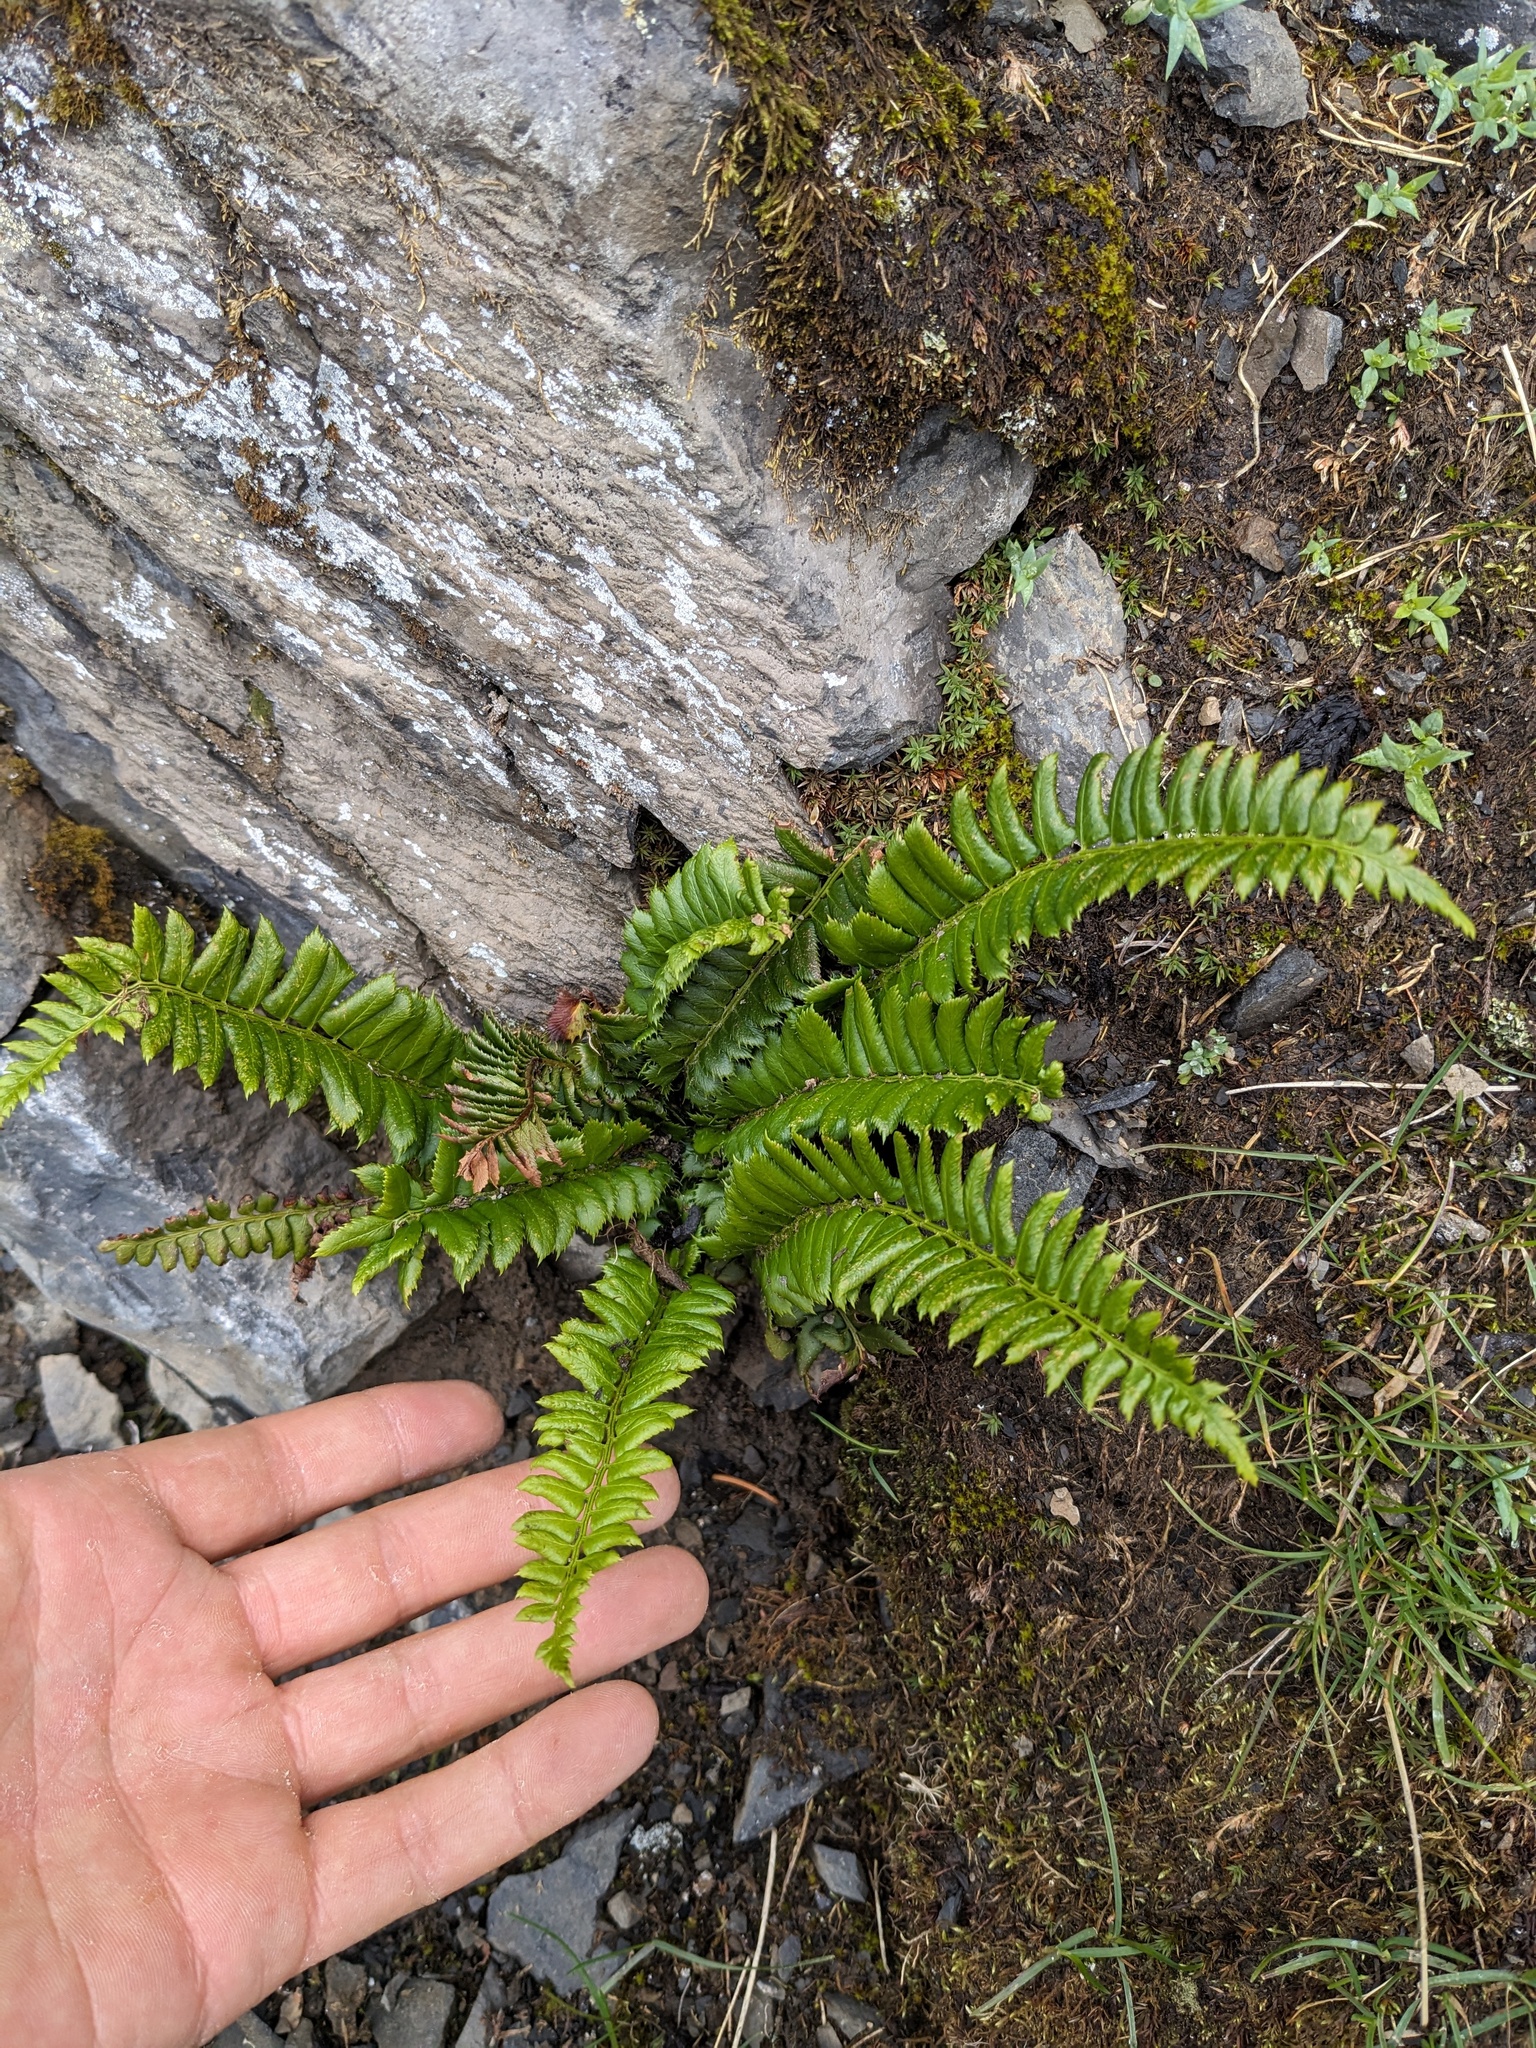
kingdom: Plantae
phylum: Tracheophyta
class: Polypodiopsida
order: Polypodiales
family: Dryopteridaceae
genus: Polystichum
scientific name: Polystichum lonchitis
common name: Holly fern
